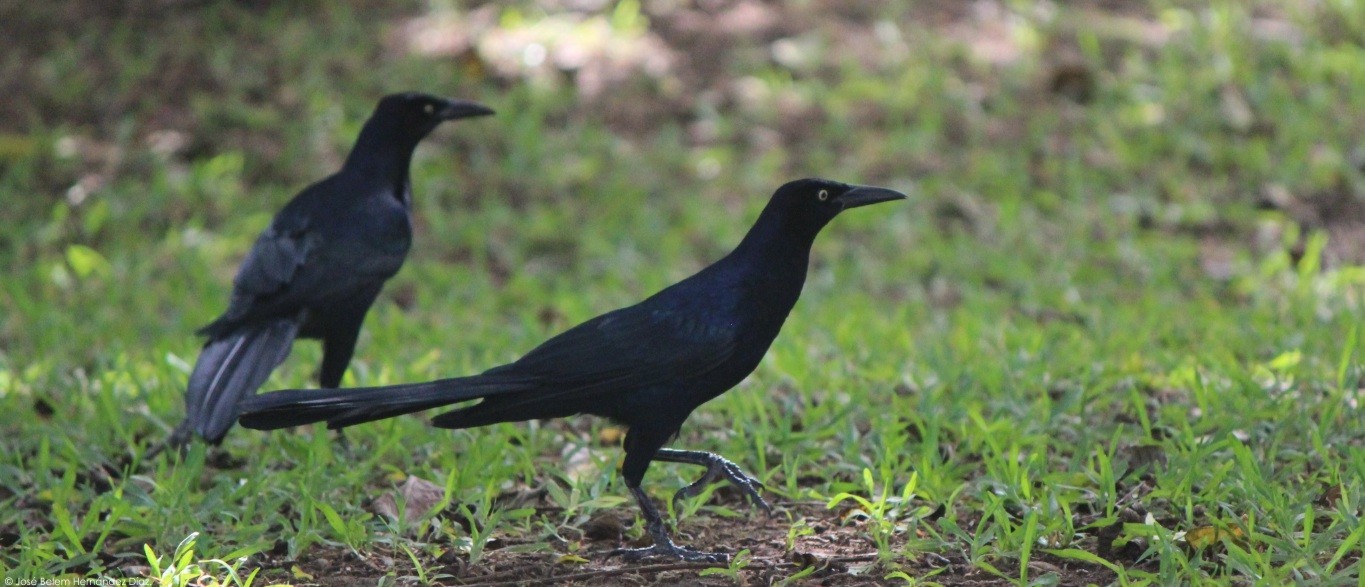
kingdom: Animalia
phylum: Chordata
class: Aves
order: Passeriformes
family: Icteridae
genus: Quiscalus
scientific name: Quiscalus mexicanus
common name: Great-tailed grackle
